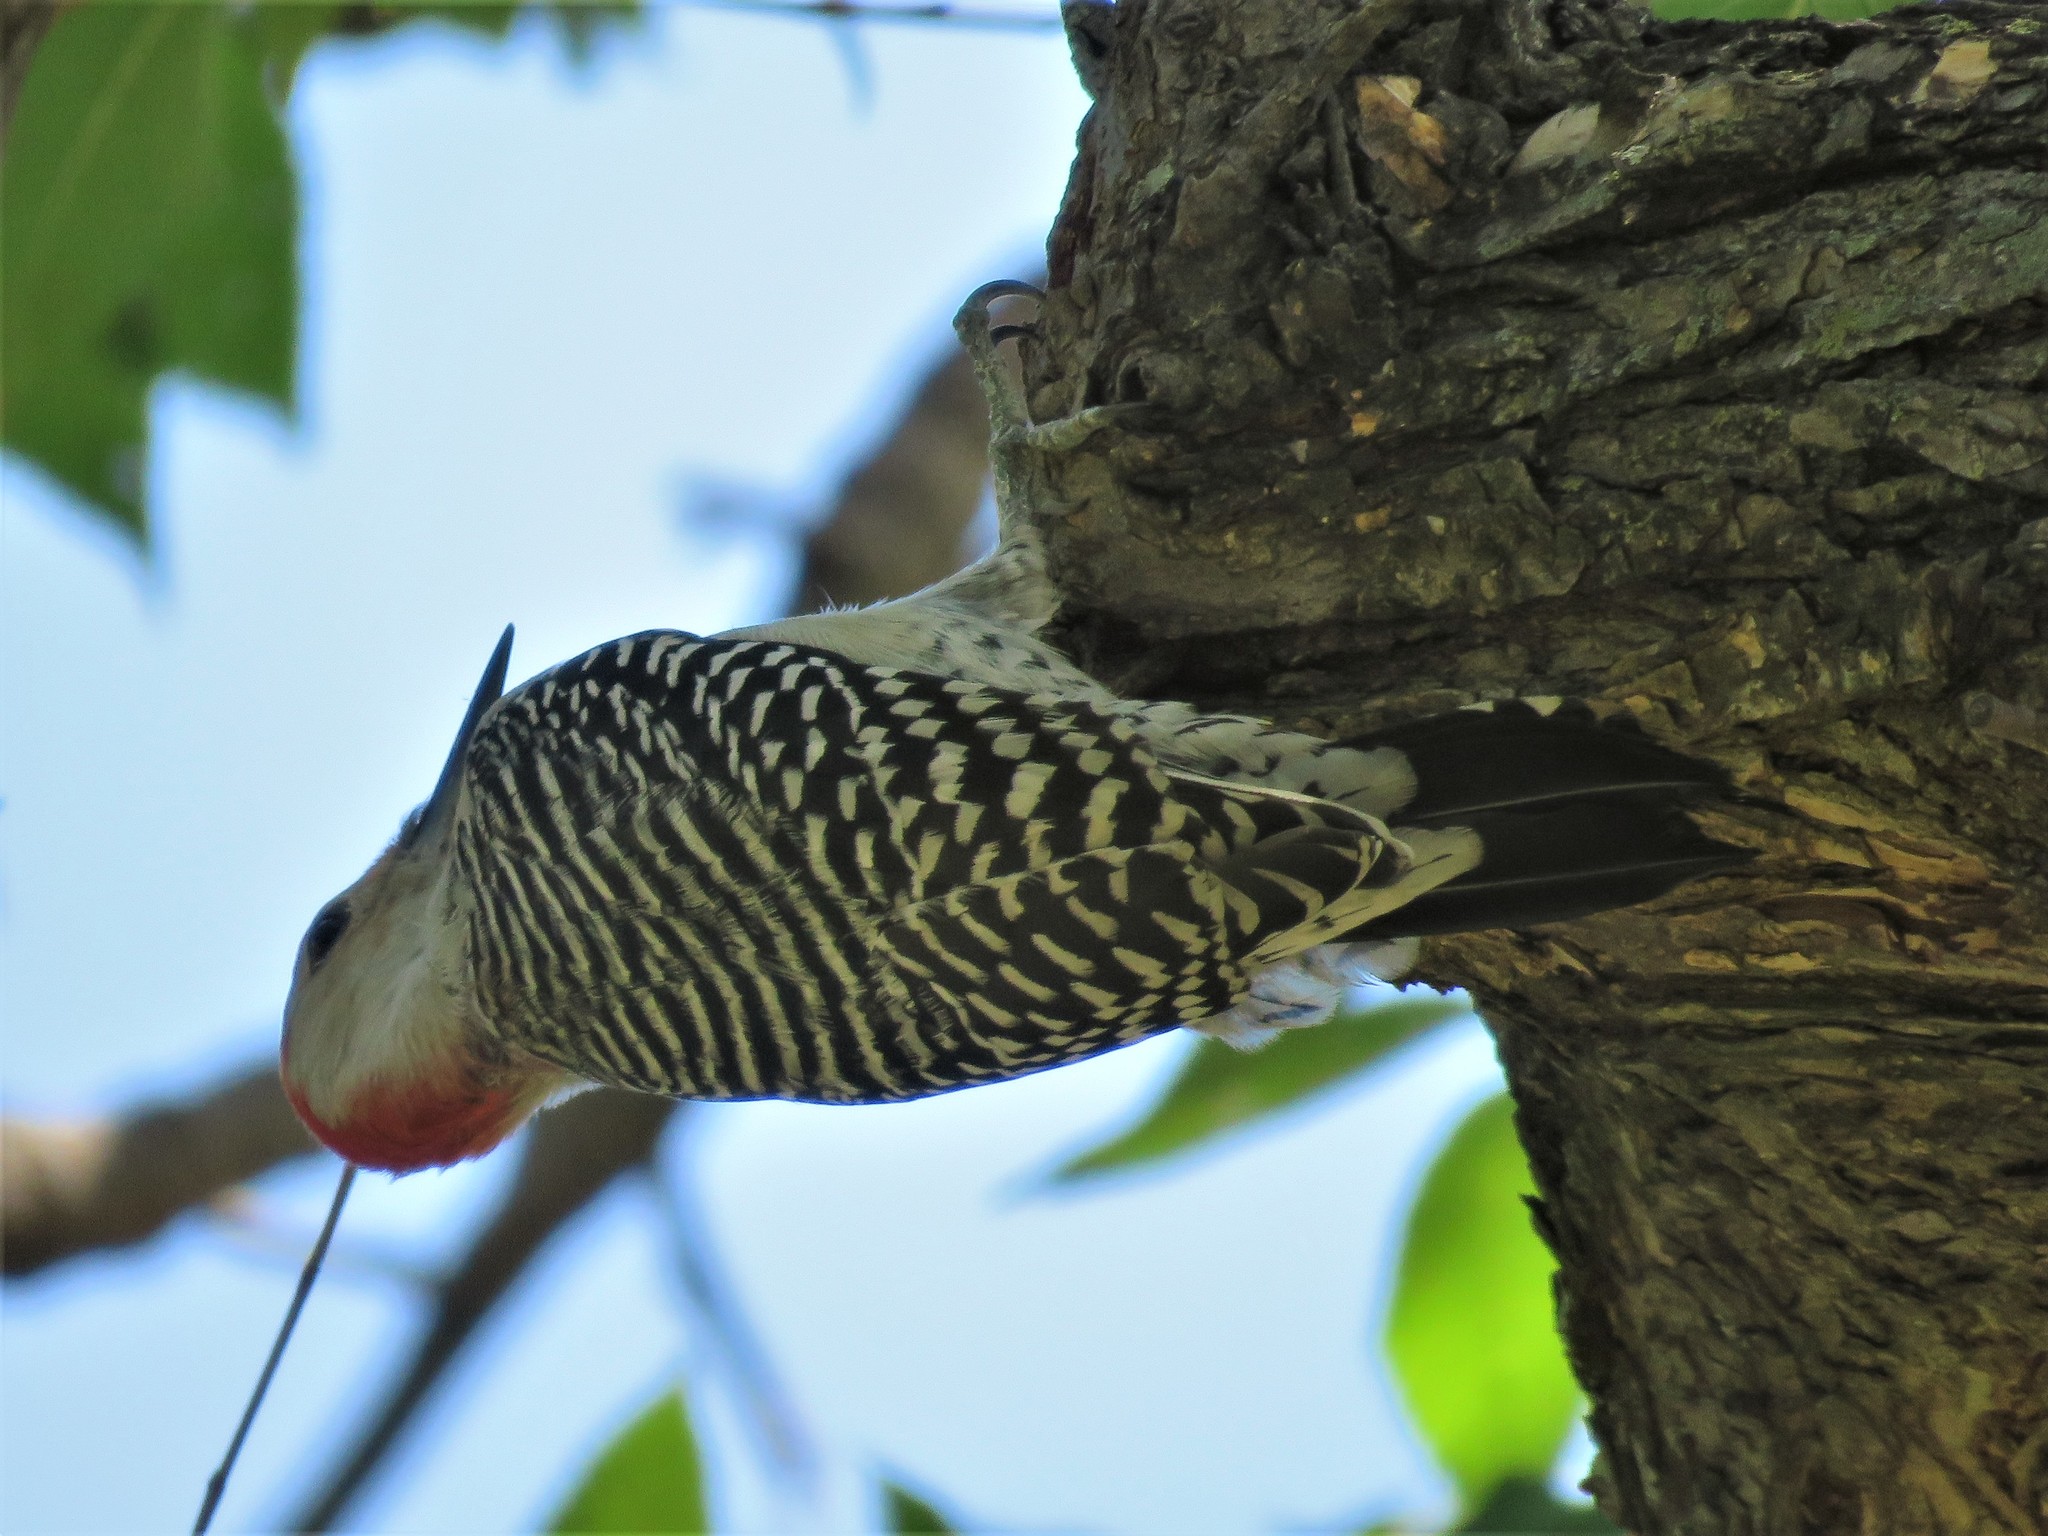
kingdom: Animalia
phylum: Chordata
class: Aves
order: Piciformes
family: Picidae
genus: Melanerpes
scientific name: Melanerpes carolinus
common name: Red-bellied woodpecker
